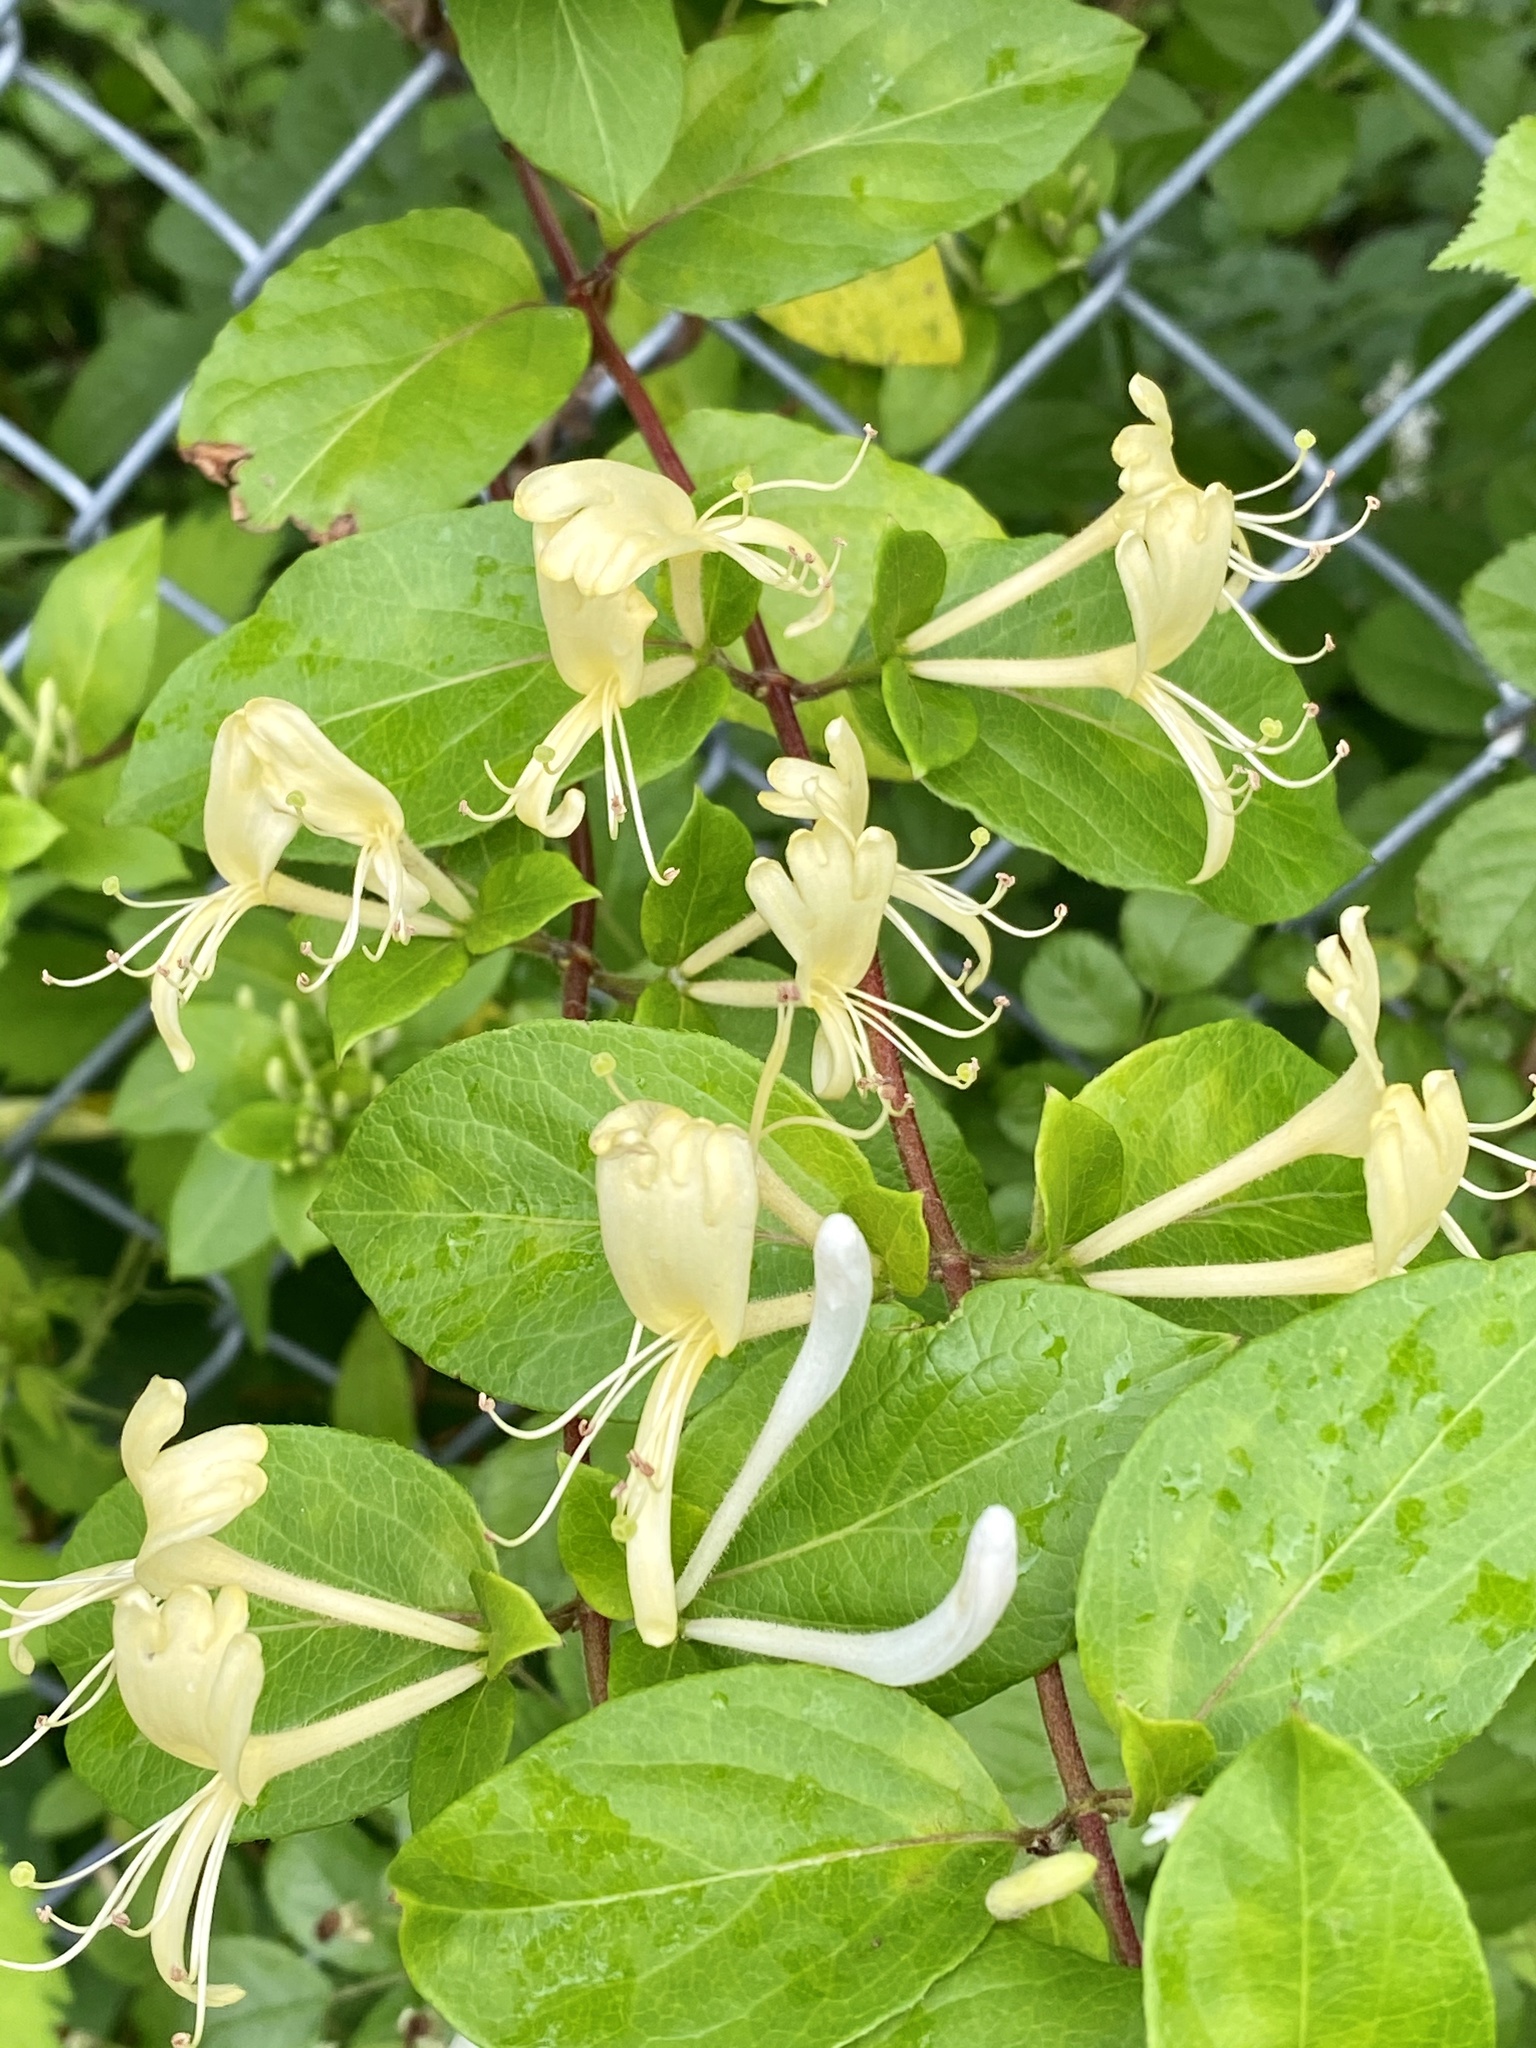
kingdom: Plantae
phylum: Tracheophyta
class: Magnoliopsida
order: Dipsacales
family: Caprifoliaceae
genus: Lonicera
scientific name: Lonicera japonica
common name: Japanese honeysuckle
